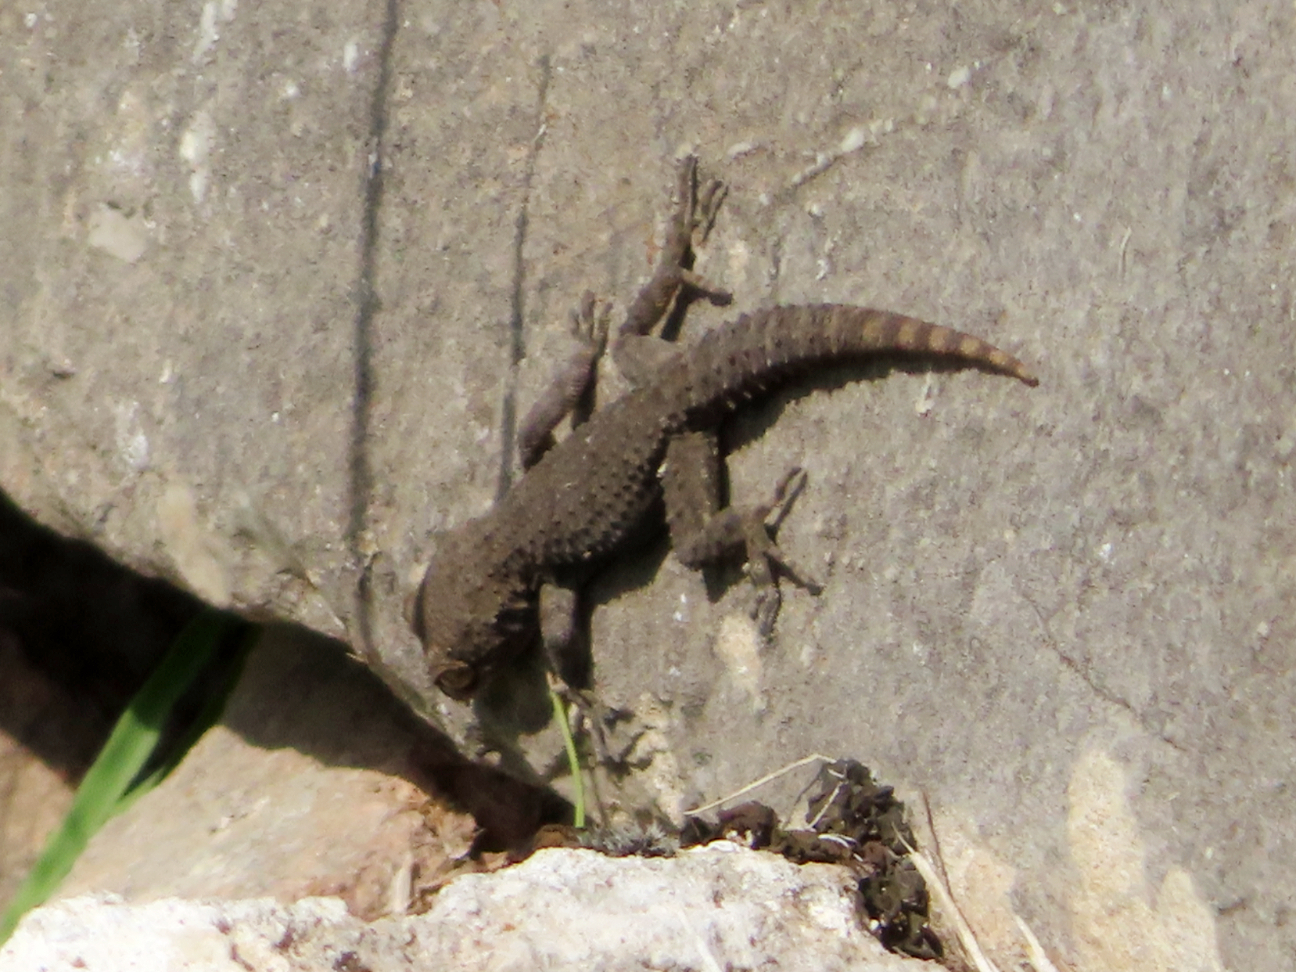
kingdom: Animalia
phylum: Chordata
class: Squamata
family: Gekkonidae
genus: Mediodactylus
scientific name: Mediodactylus kotschyi
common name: Kotschy's gecko
